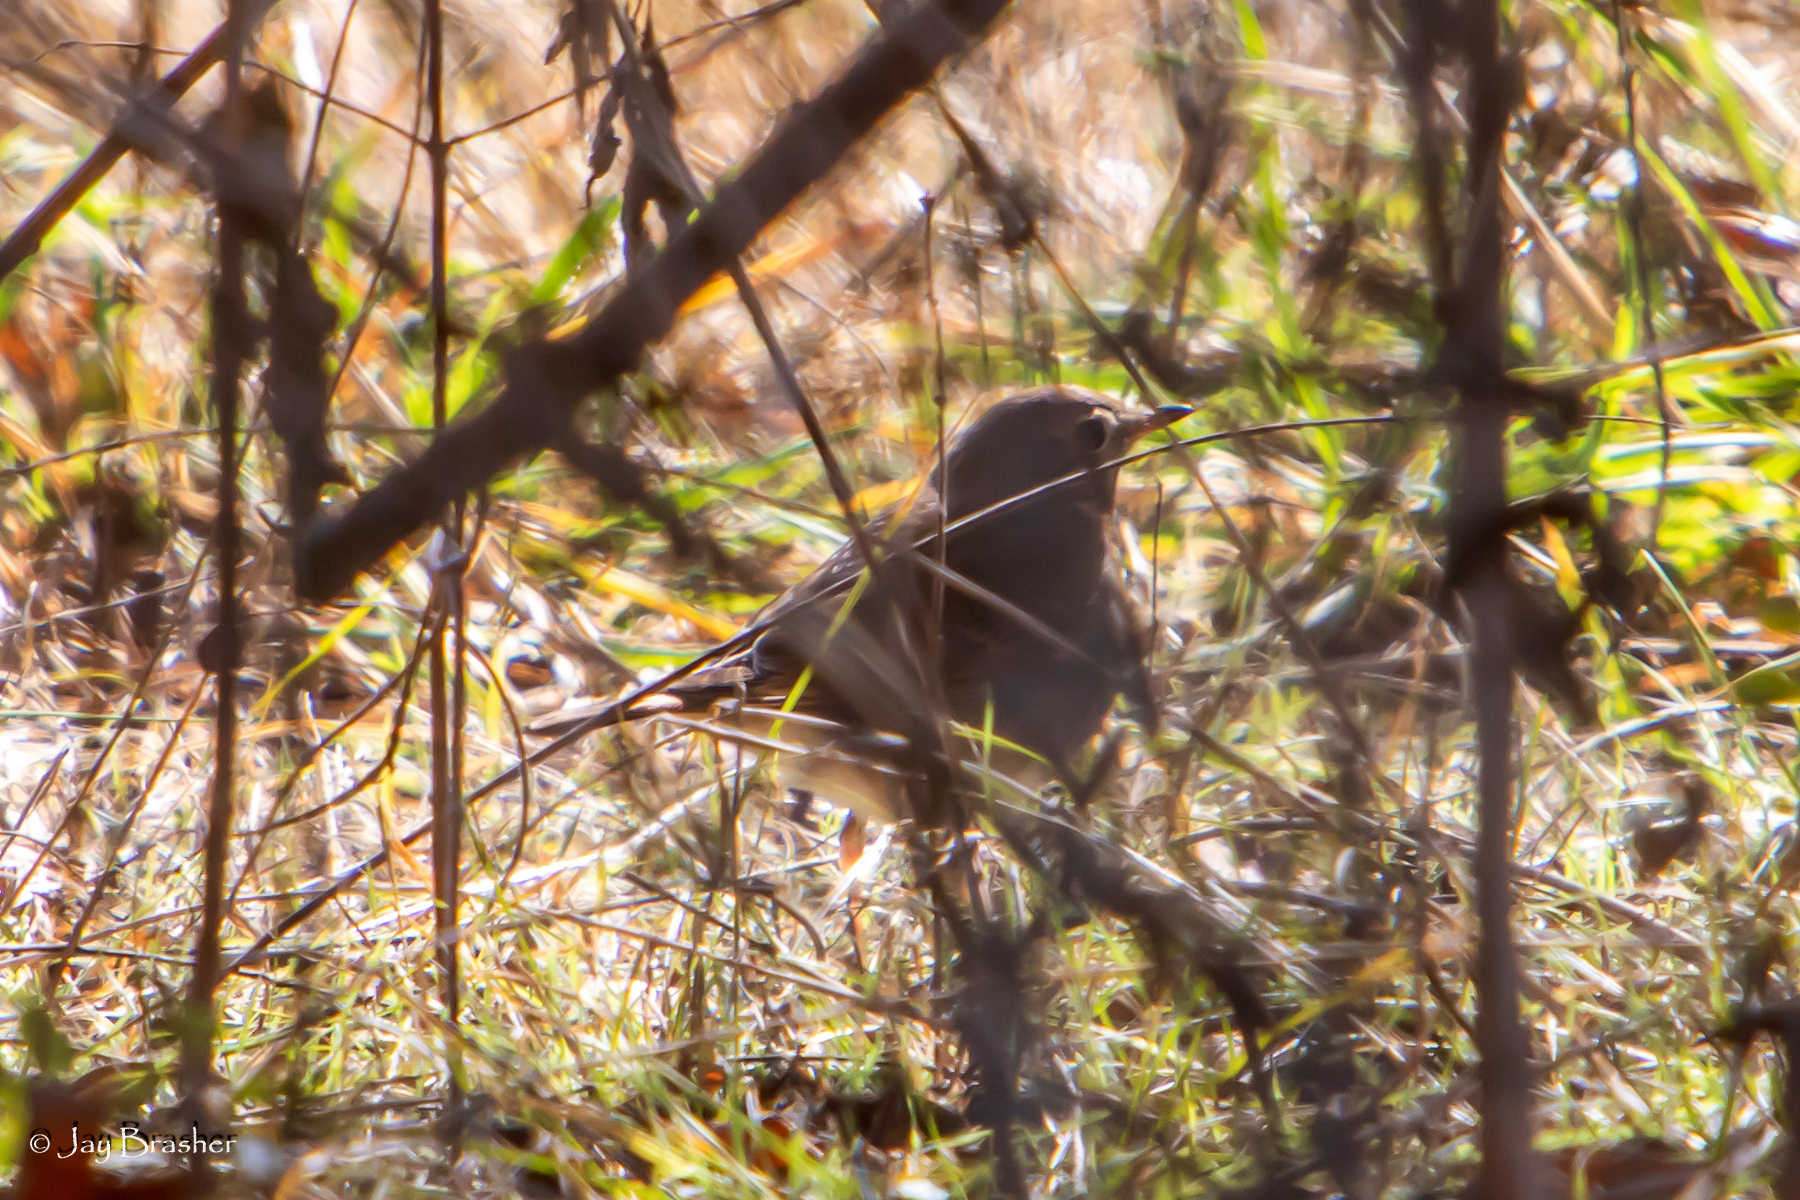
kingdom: Animalia
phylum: Chordata
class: Aves
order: Passeriformes
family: Turdidae
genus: Catharus
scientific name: Catharus guttatus
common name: Hermit thrush
